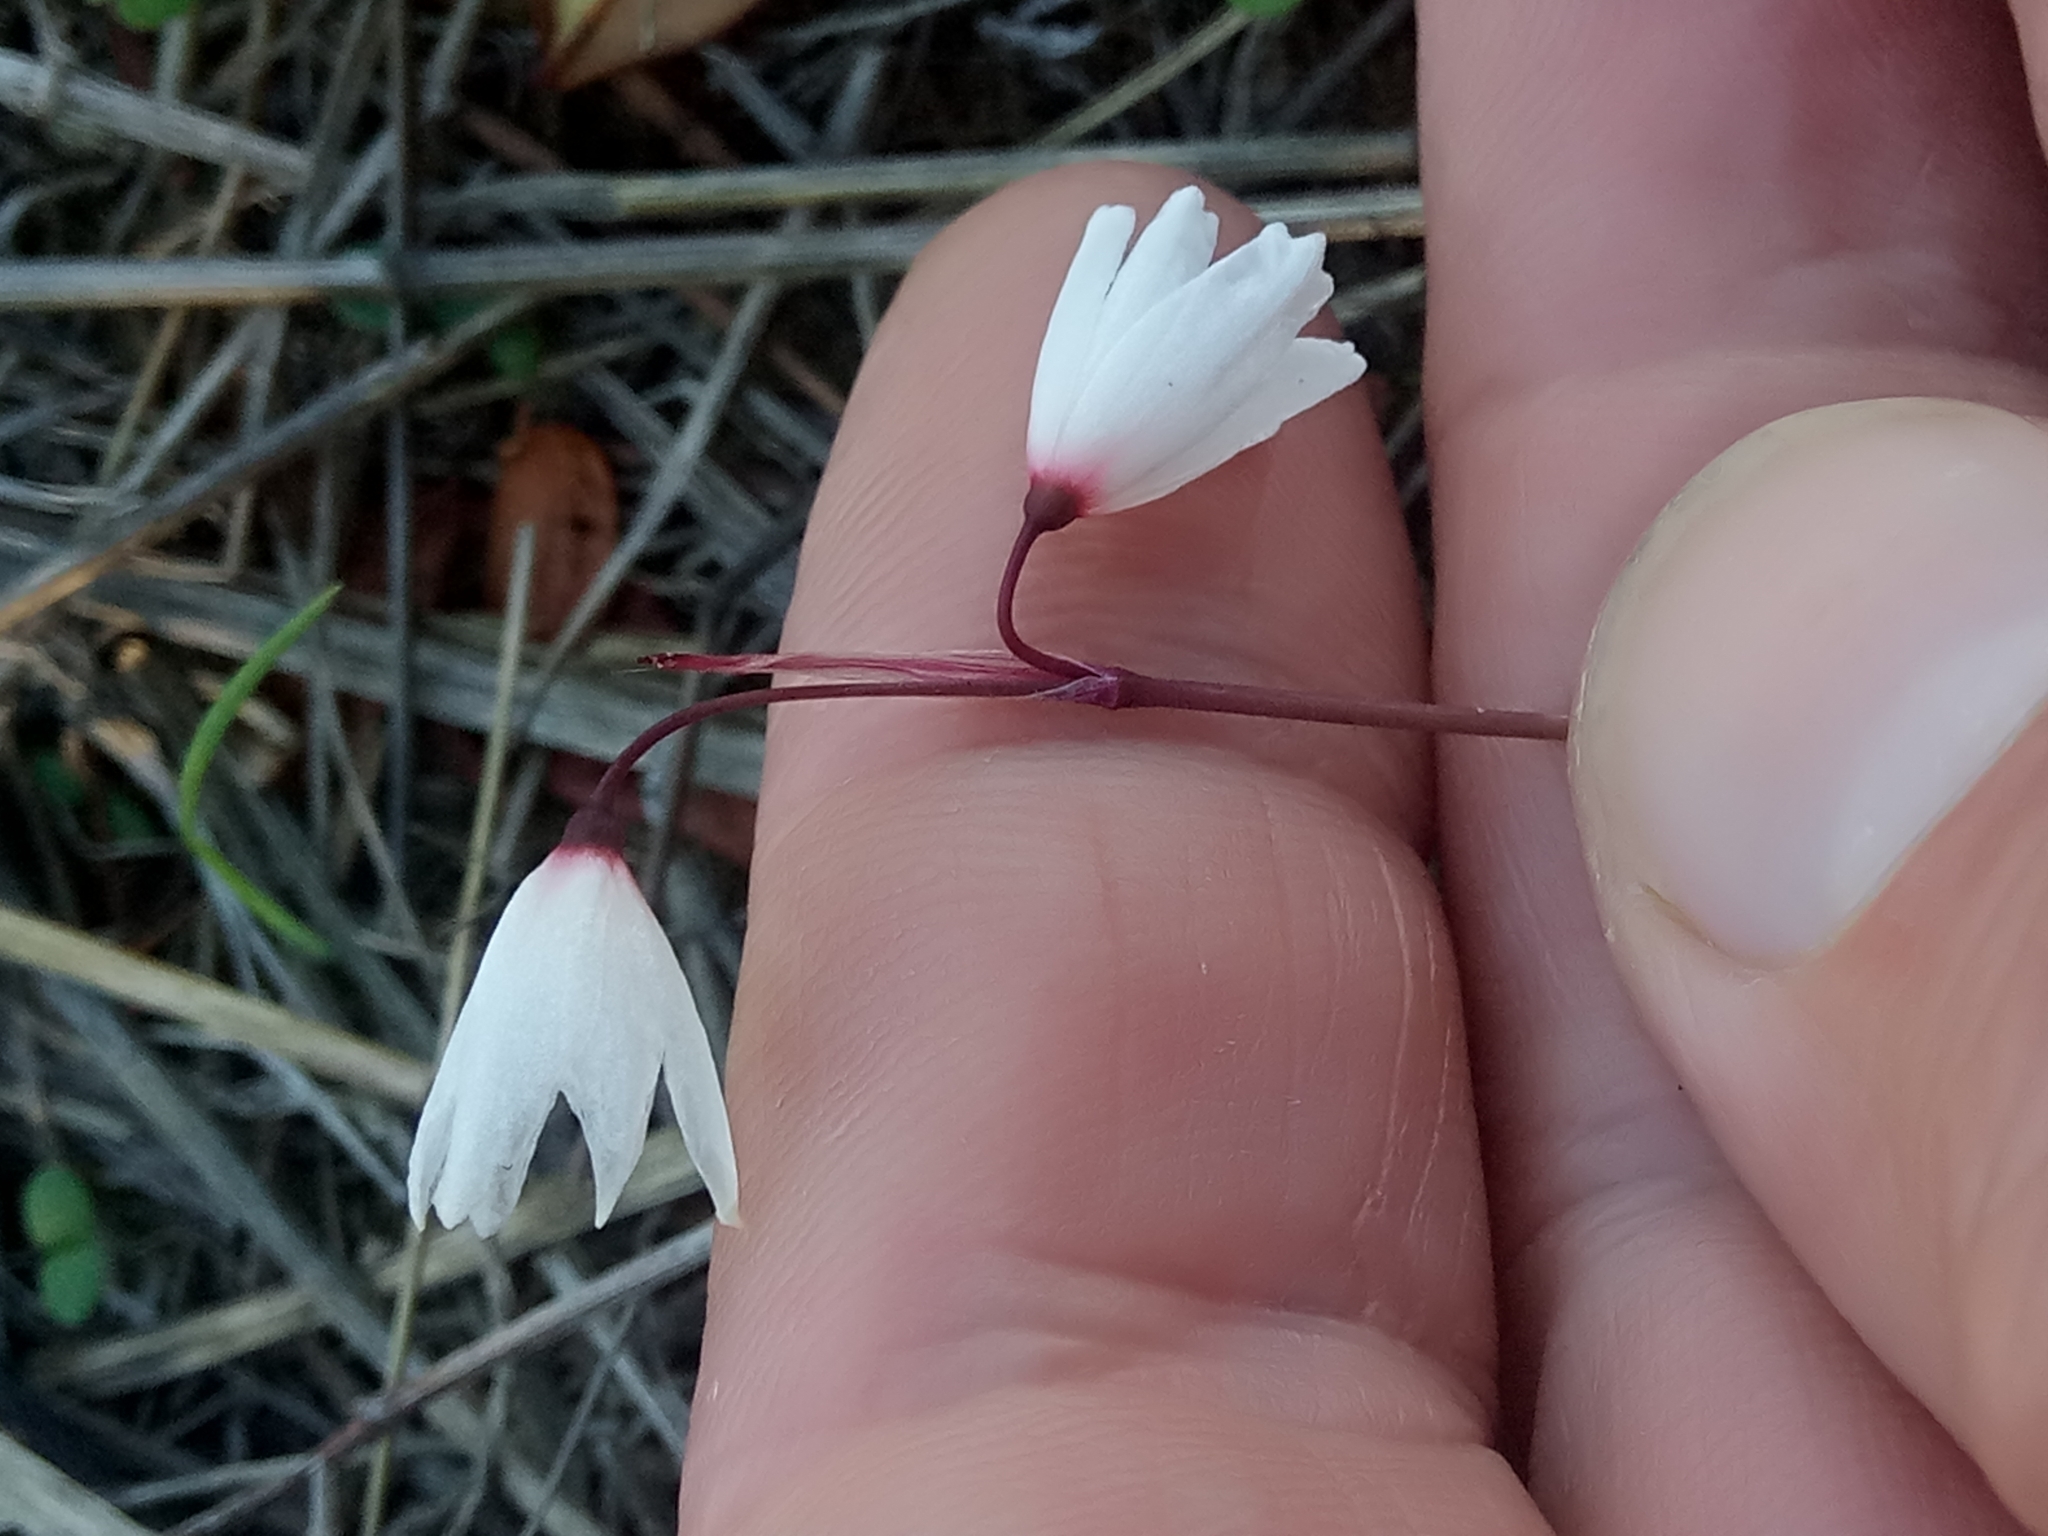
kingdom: Plantae
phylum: Tracheophyta
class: Liliopsida
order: Asparagales
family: Amaryllidaceae
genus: Acis
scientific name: Acis autumnalis
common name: Autumn snowflake
